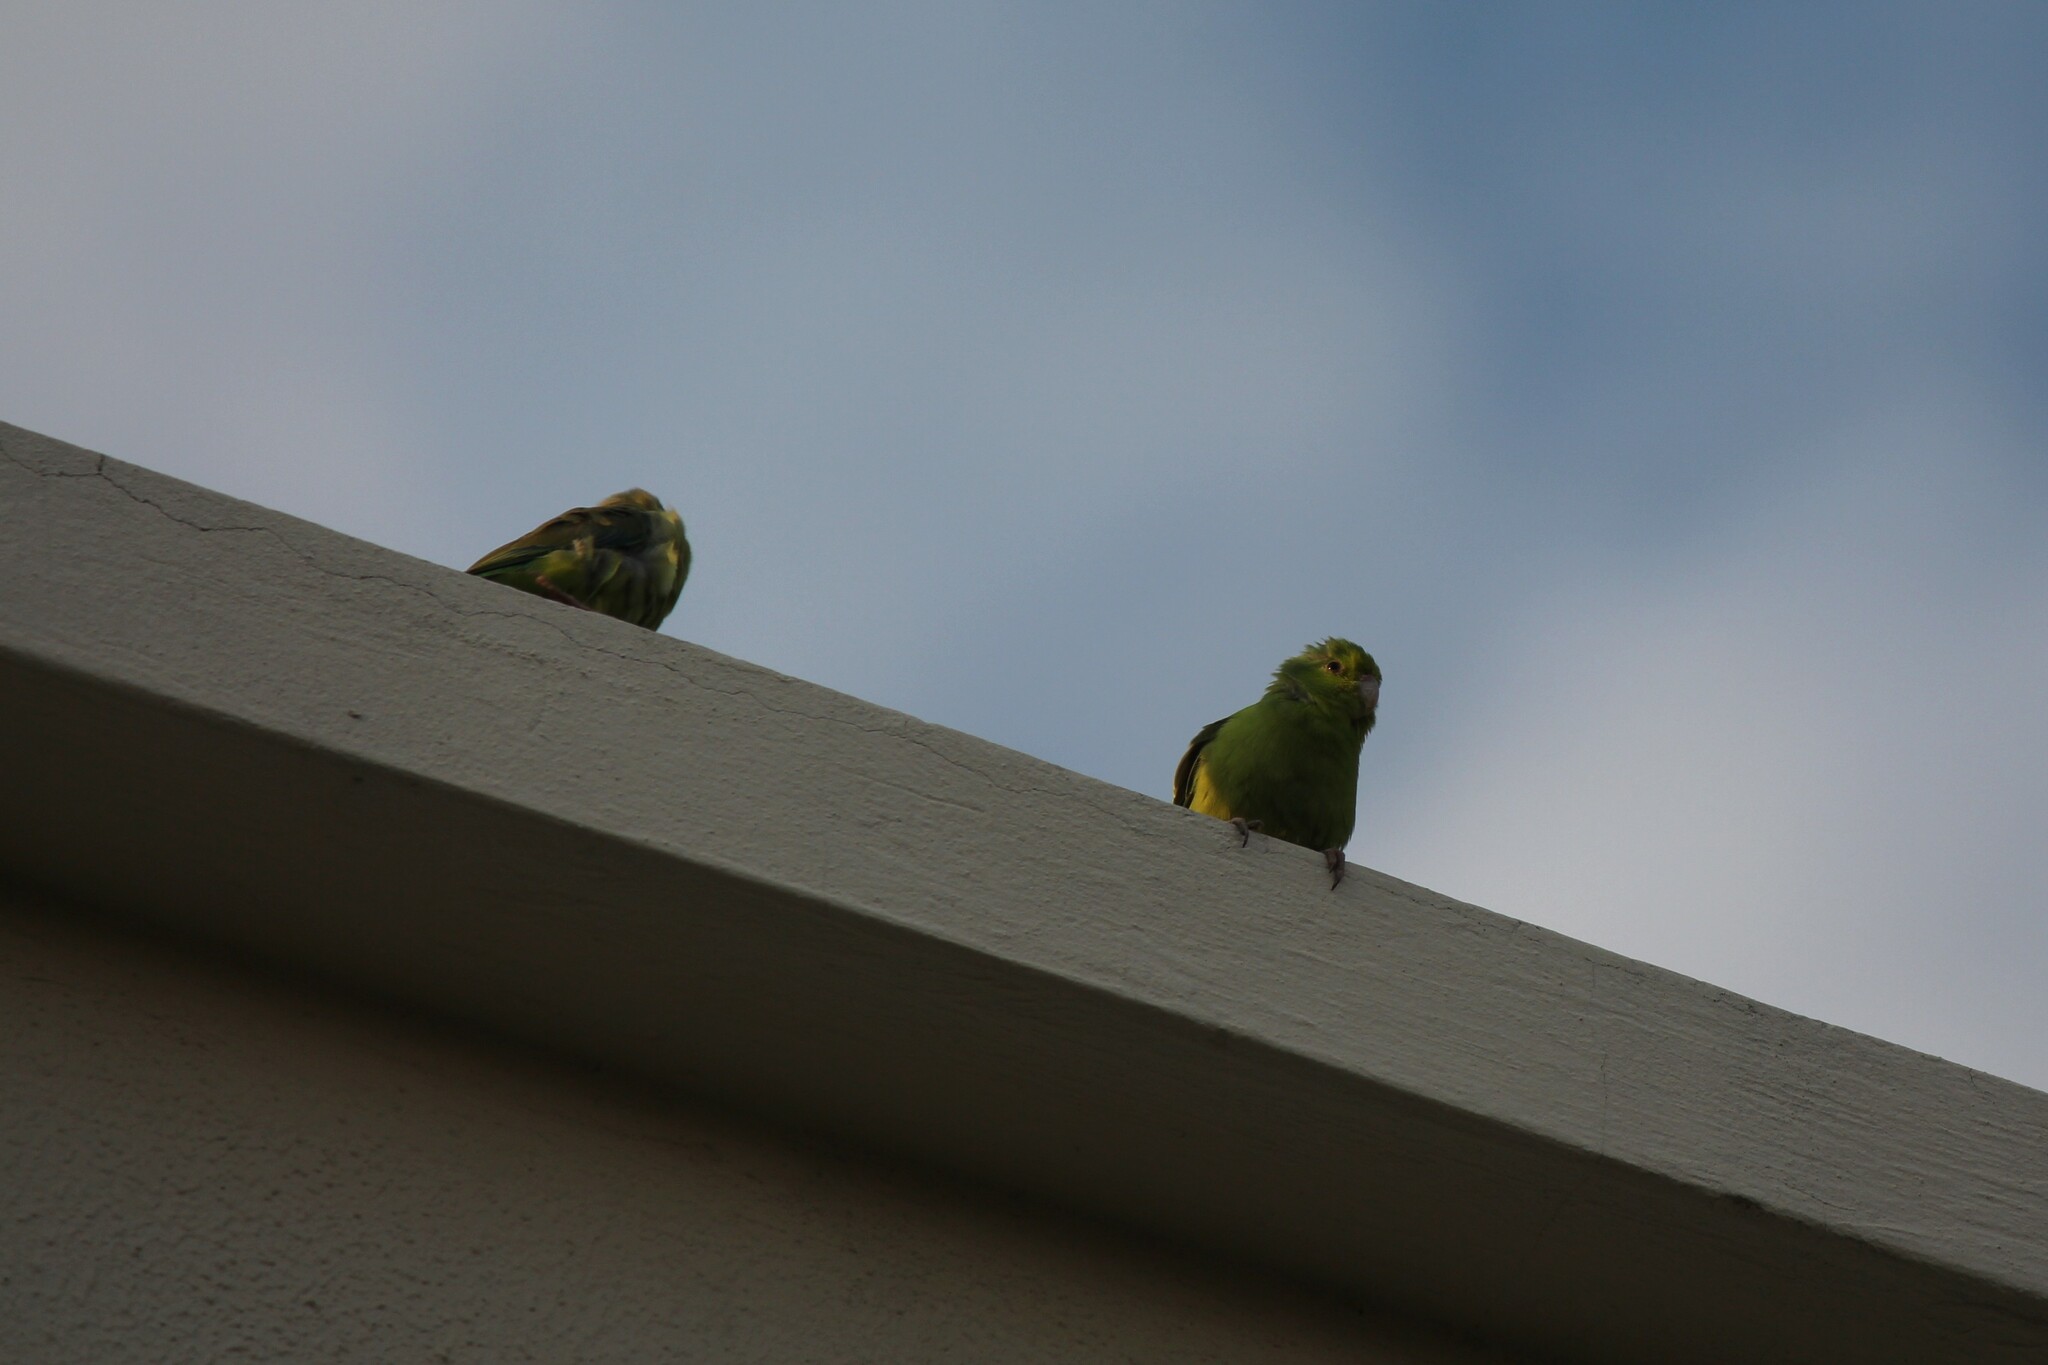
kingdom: Animalia
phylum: Chordata
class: Aves
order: Psittaciformes
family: Psittacidae
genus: Forpus
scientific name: Forpus coelestis
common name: Pacific parrotlet
